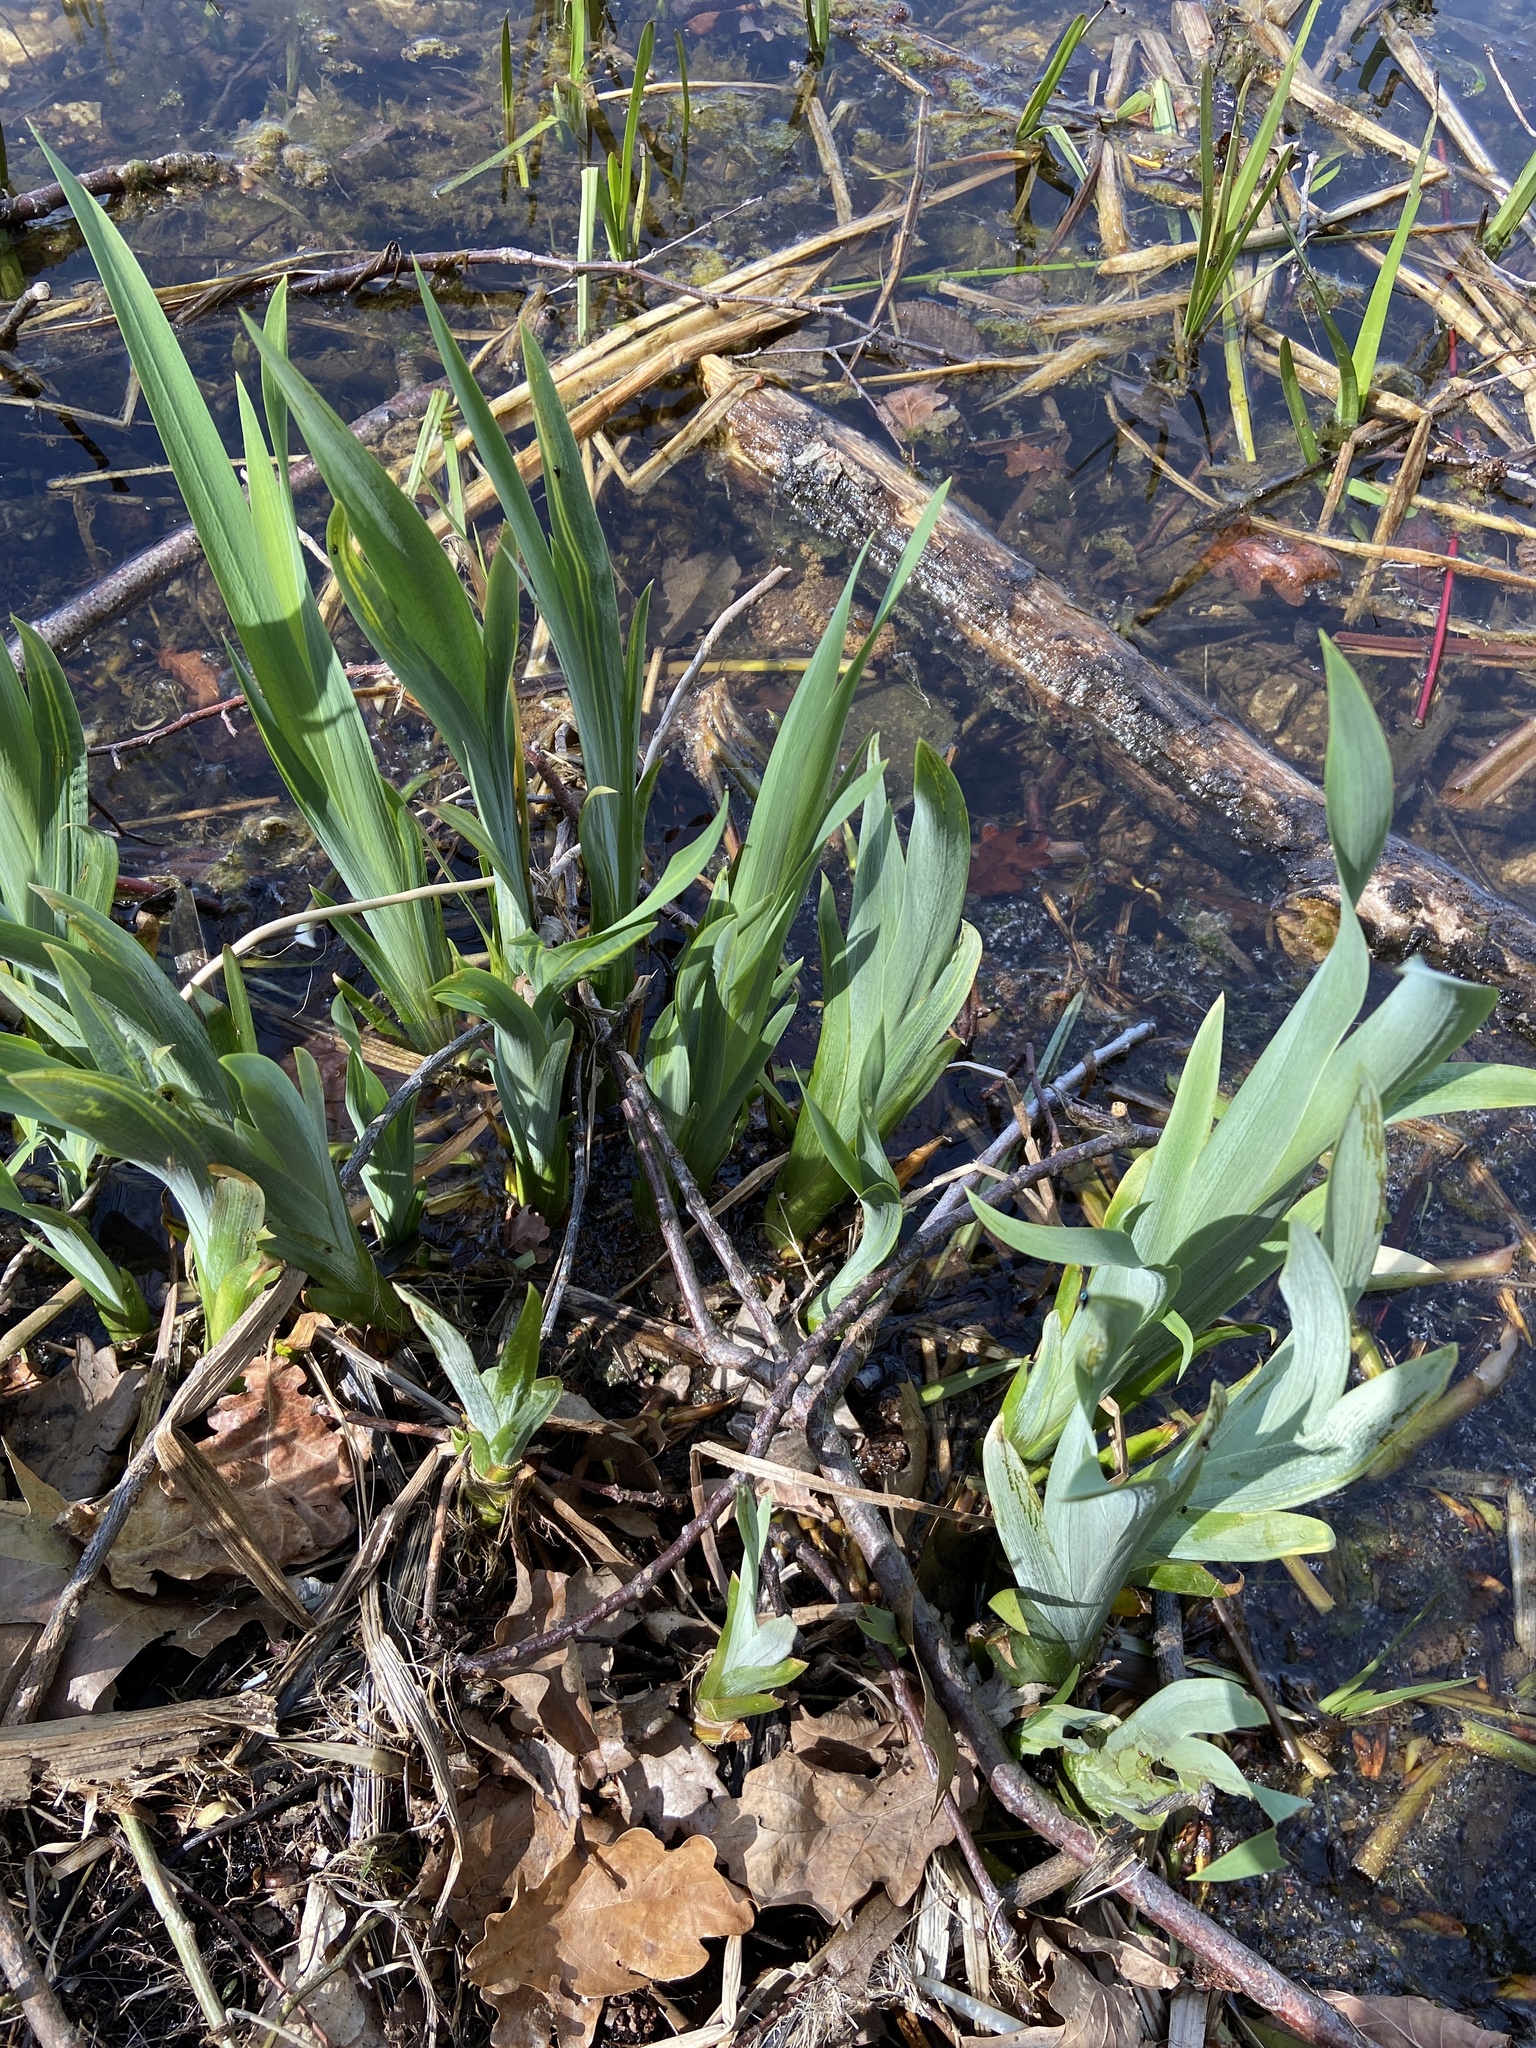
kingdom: Plantae
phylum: Tracheophyta
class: Liliopsida
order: Asparagales
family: Iridaceae
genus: Iris
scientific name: Iris pseudacorus
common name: Yellow flag
